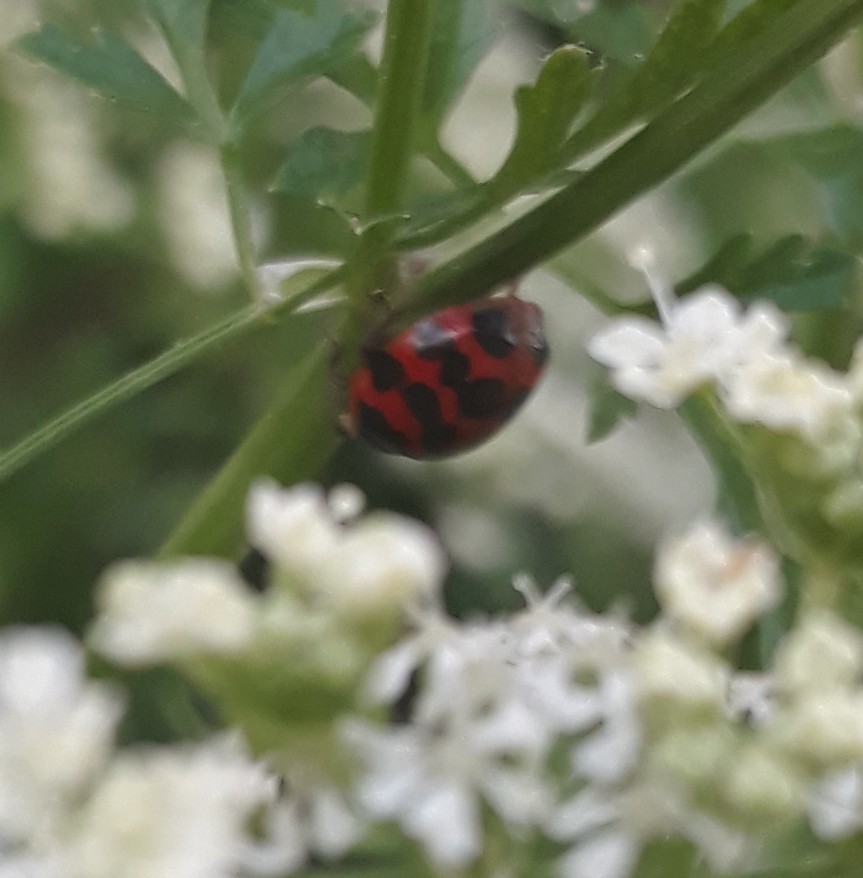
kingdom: Animalia
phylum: Arthropoda
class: Insecta
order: Coleoptera
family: Coccinellidae
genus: Harmonia
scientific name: Harmonia axyridis
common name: Harlequin ladybird
